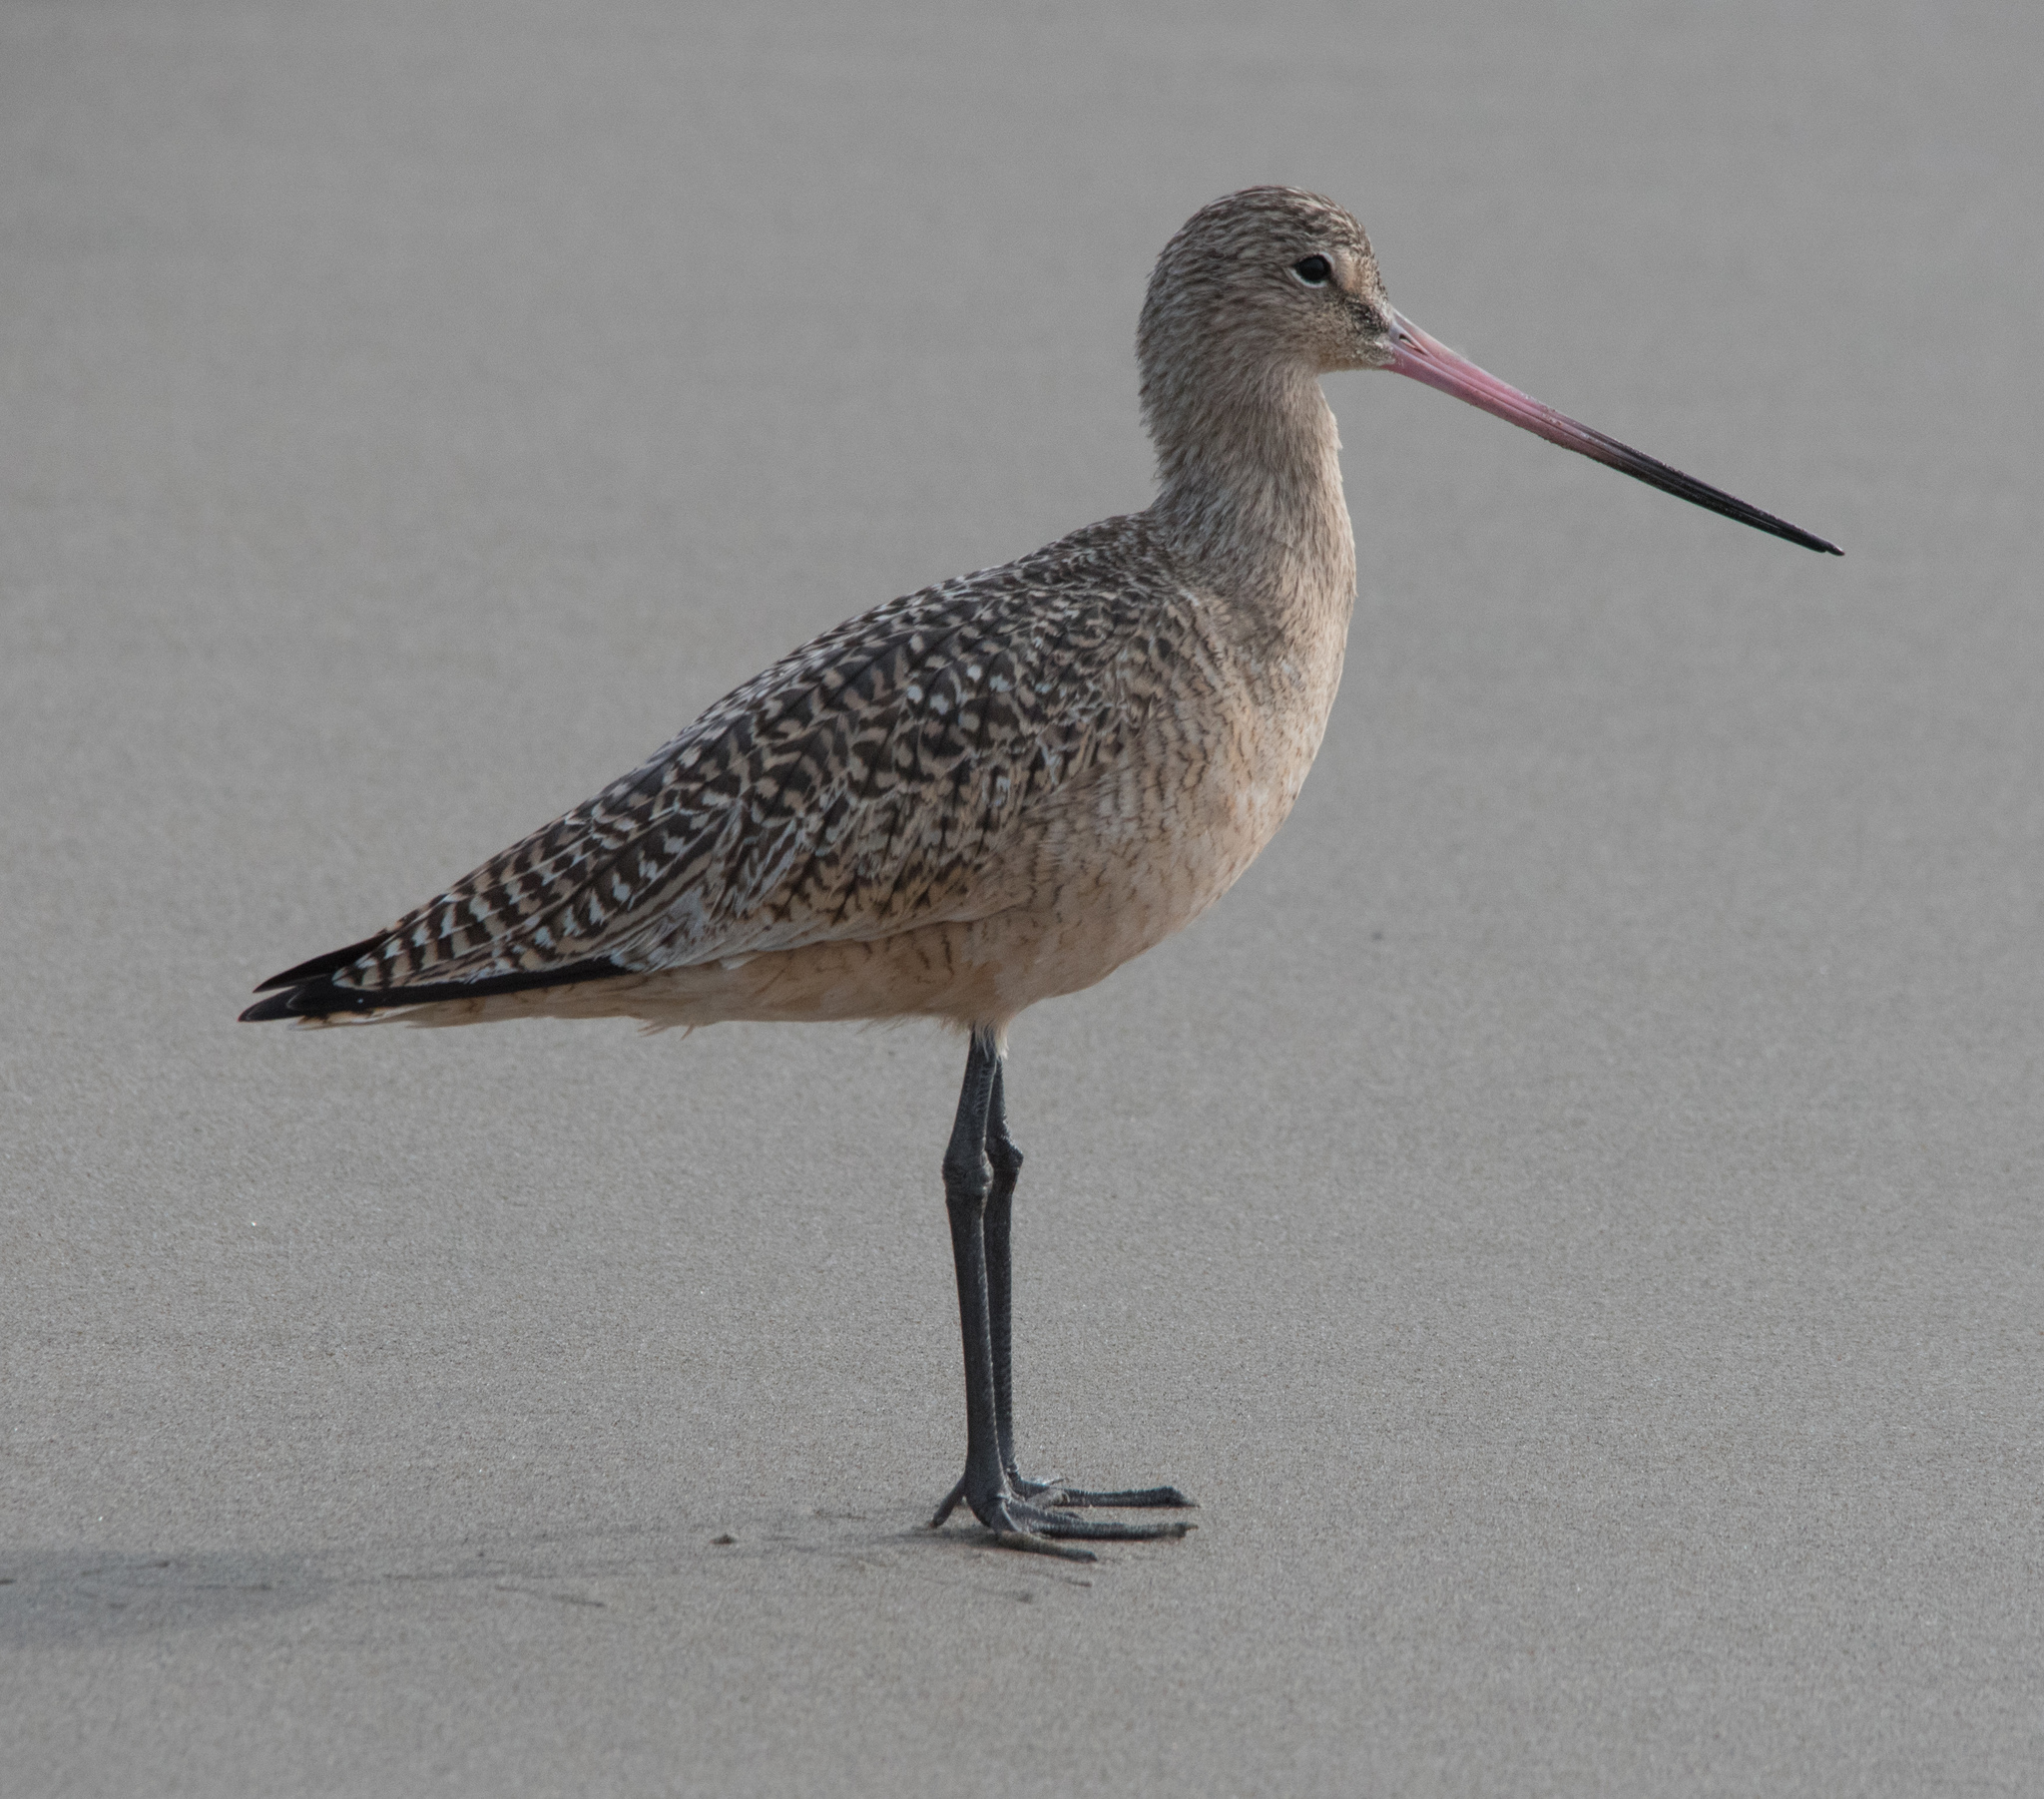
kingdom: Animalia
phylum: Chordata
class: Aves
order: Charadriiformes
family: Scolopacidae
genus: Limosa
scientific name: Limosa fedoa
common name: Marbled godwit
